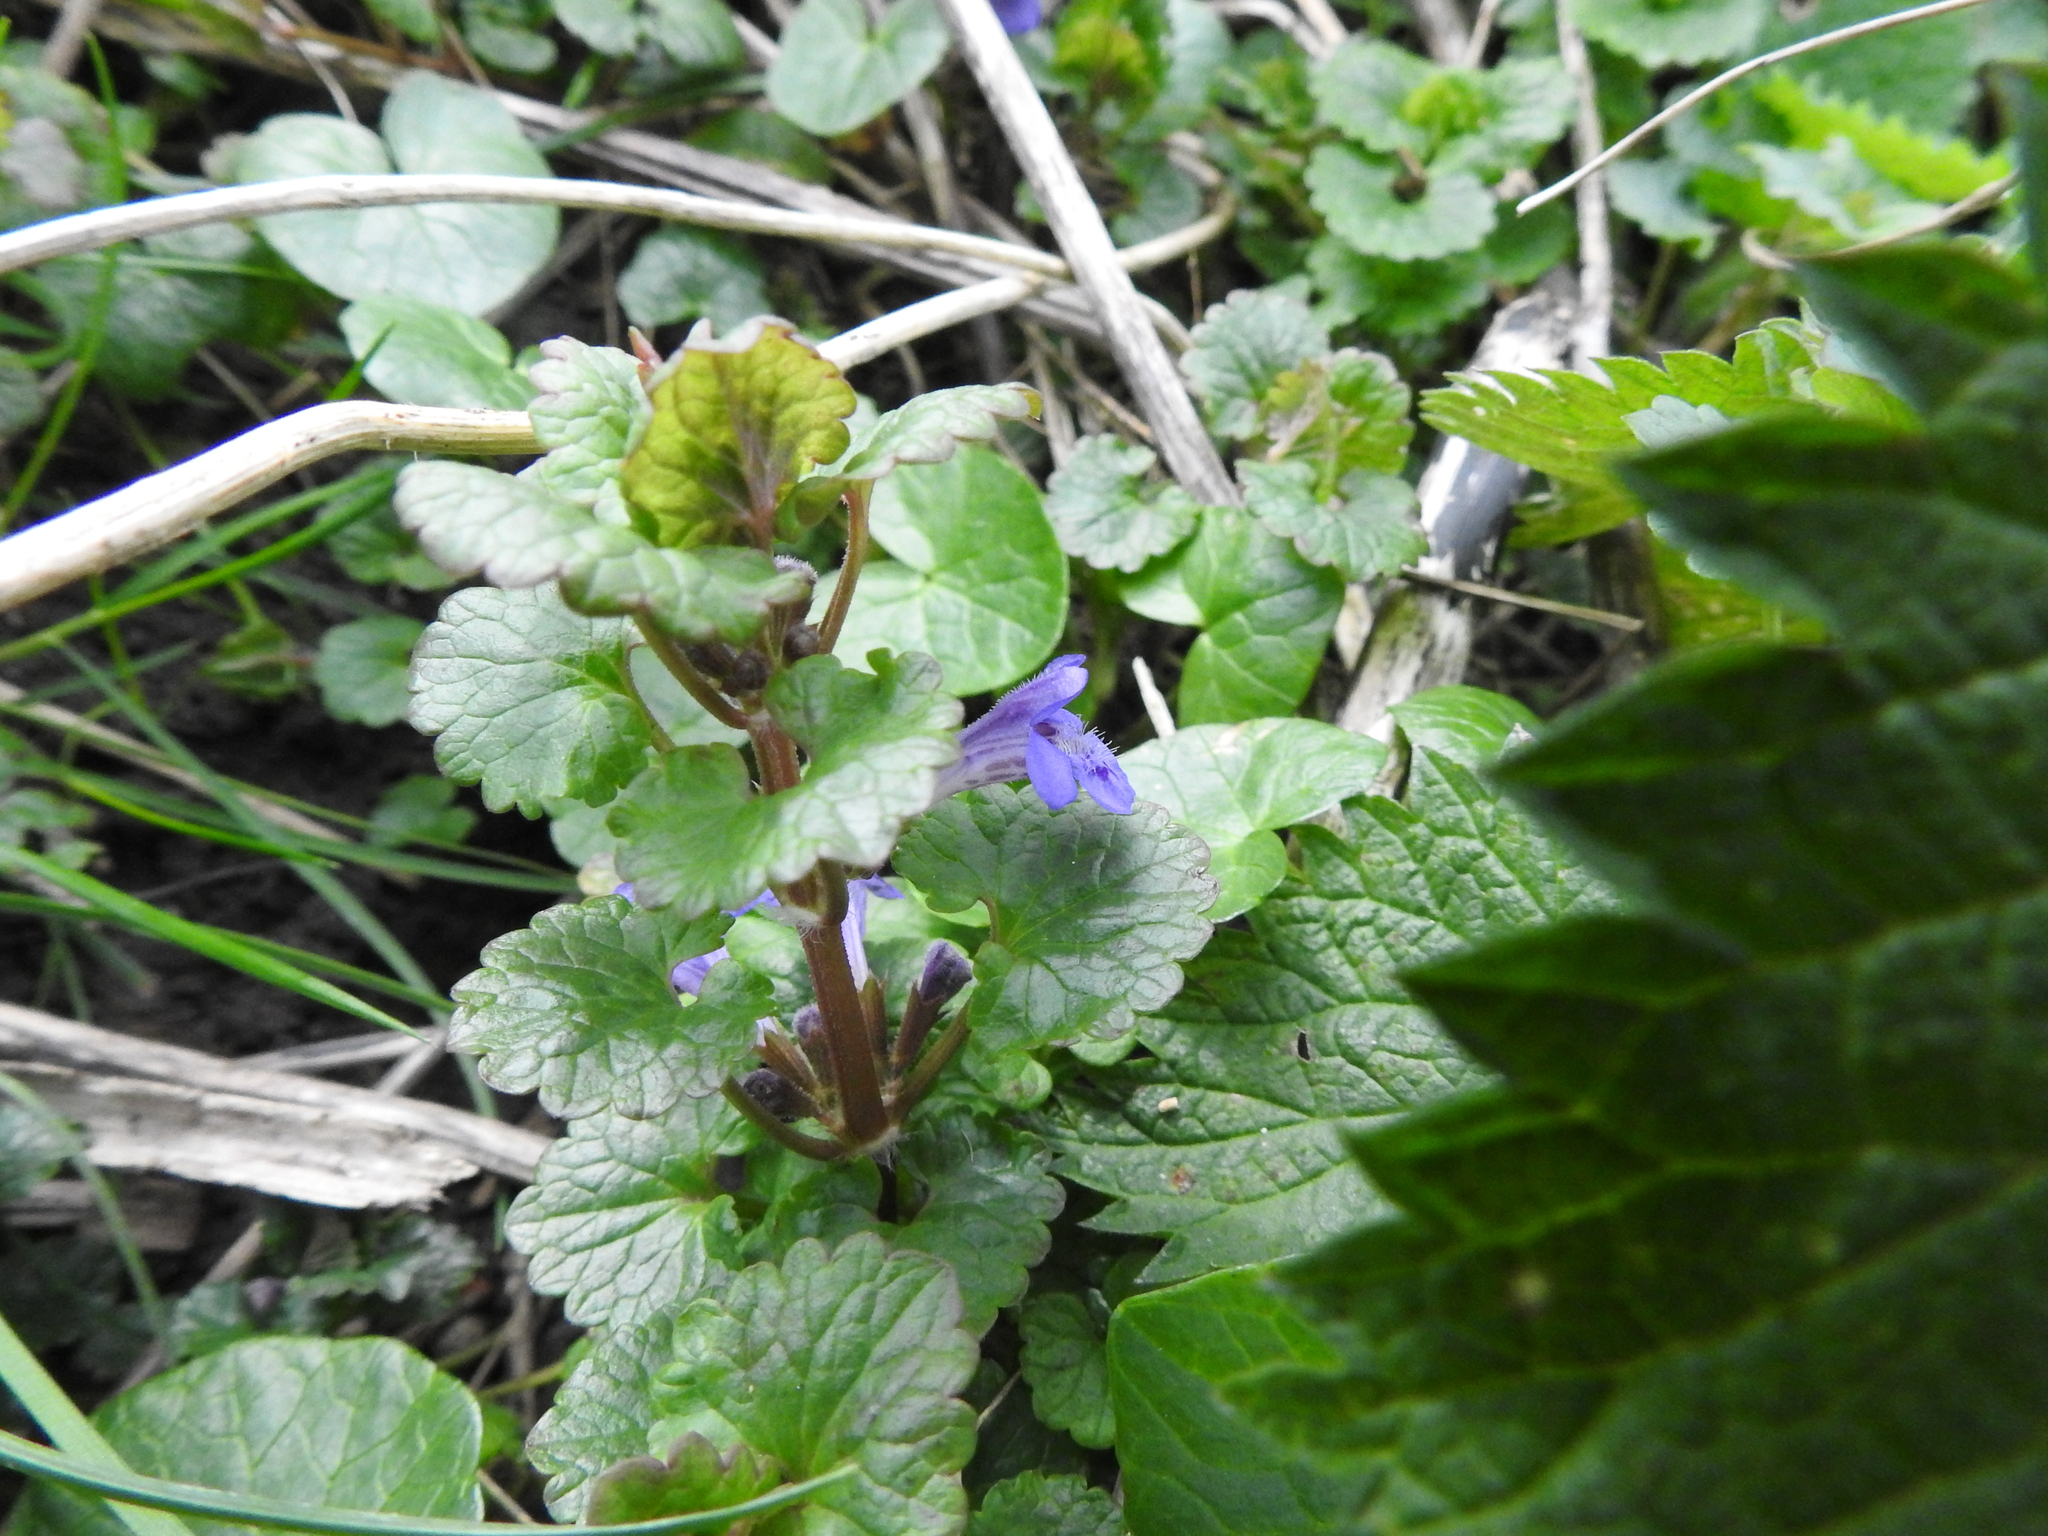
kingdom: Plantae
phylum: Tracheophyta
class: Magnoliopsida
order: Lamiales
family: Lamiaceae
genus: Glechoma
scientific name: Glechoma hederacea
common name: Ground ivy
